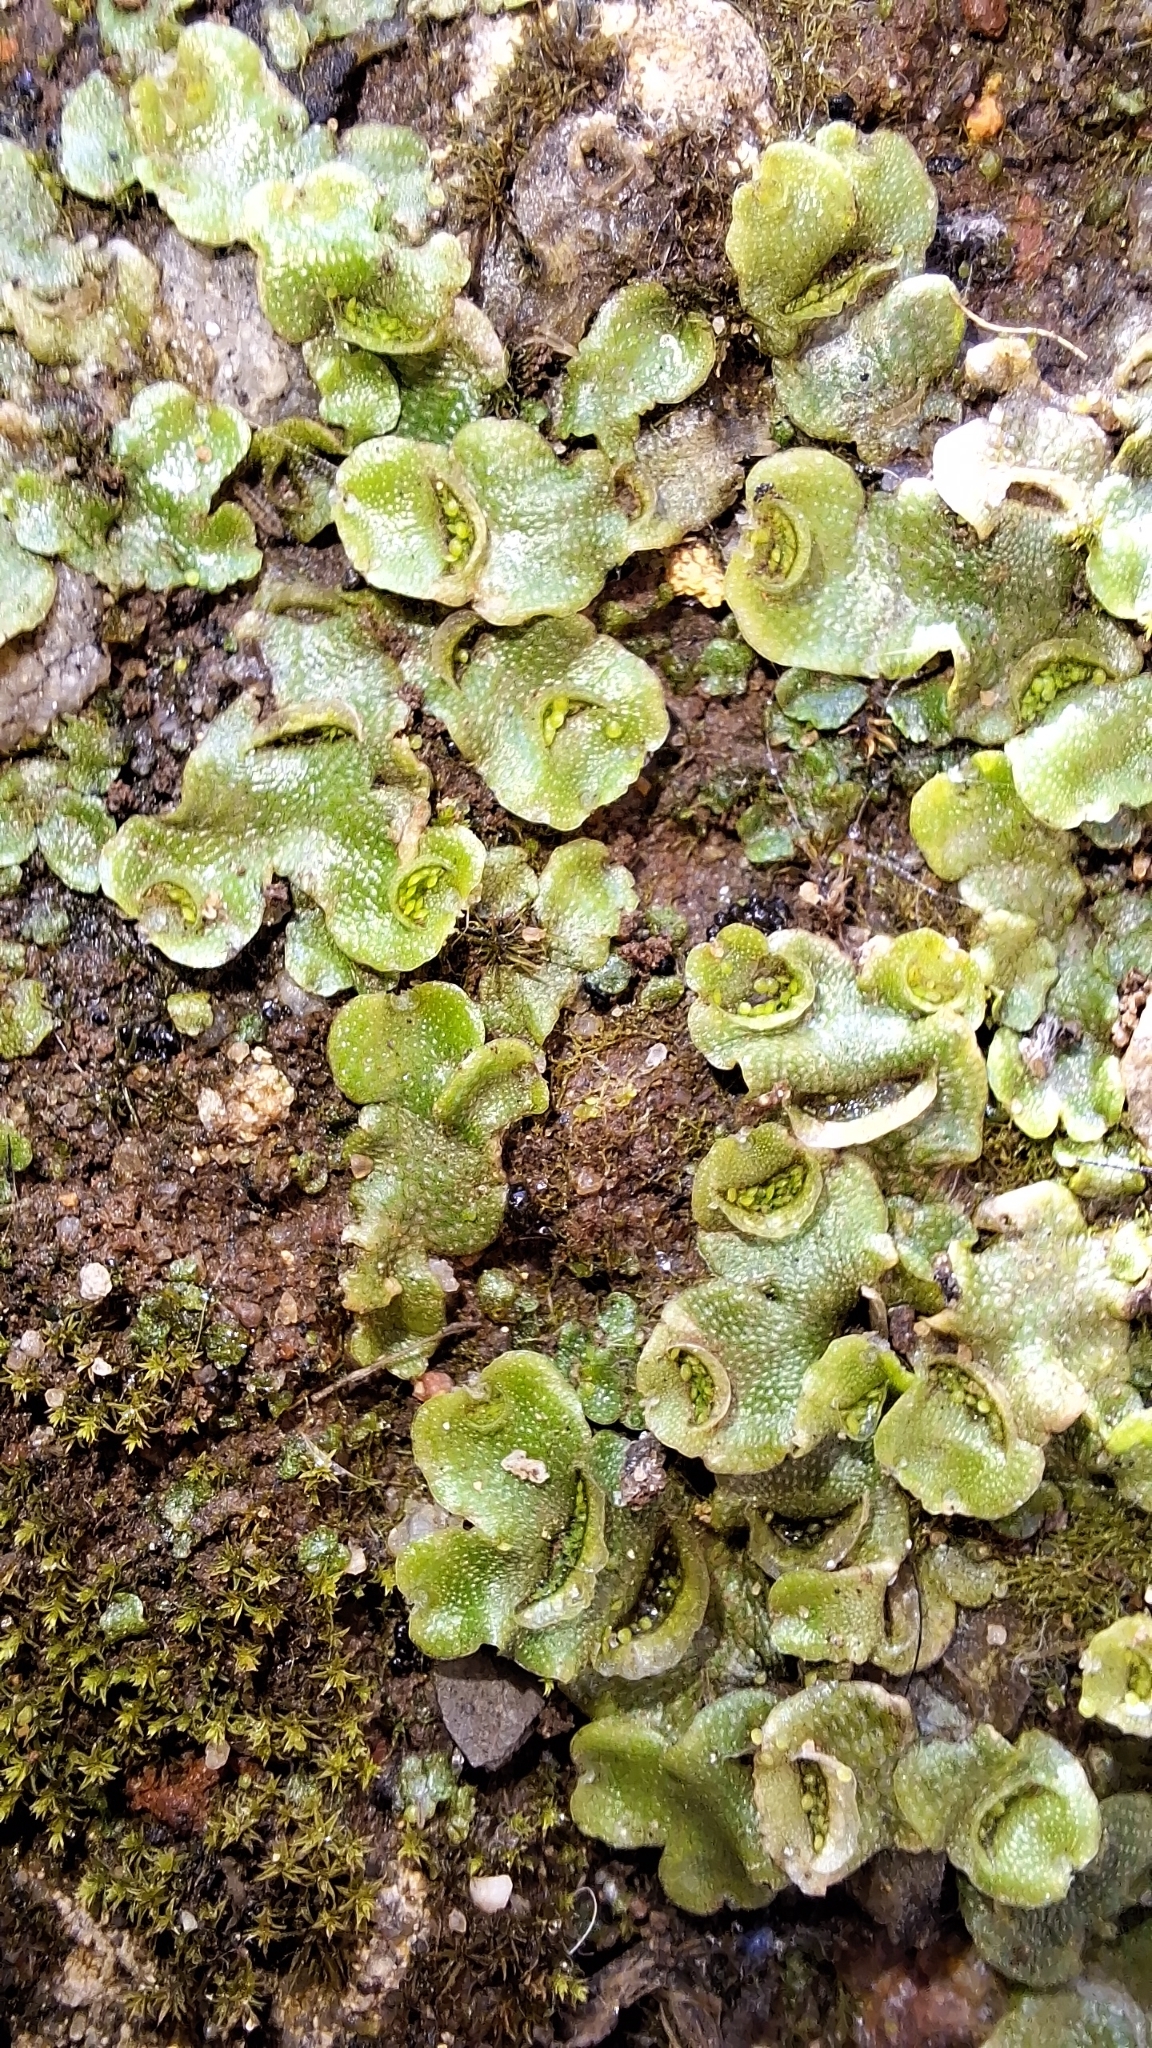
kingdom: Plantae
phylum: Marchantiophyta
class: Marchantiopsida
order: Lunulariales
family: Lunulariaceae
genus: Lunularia
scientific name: Lunularia cruciata
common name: Crescent-cup liverwort
